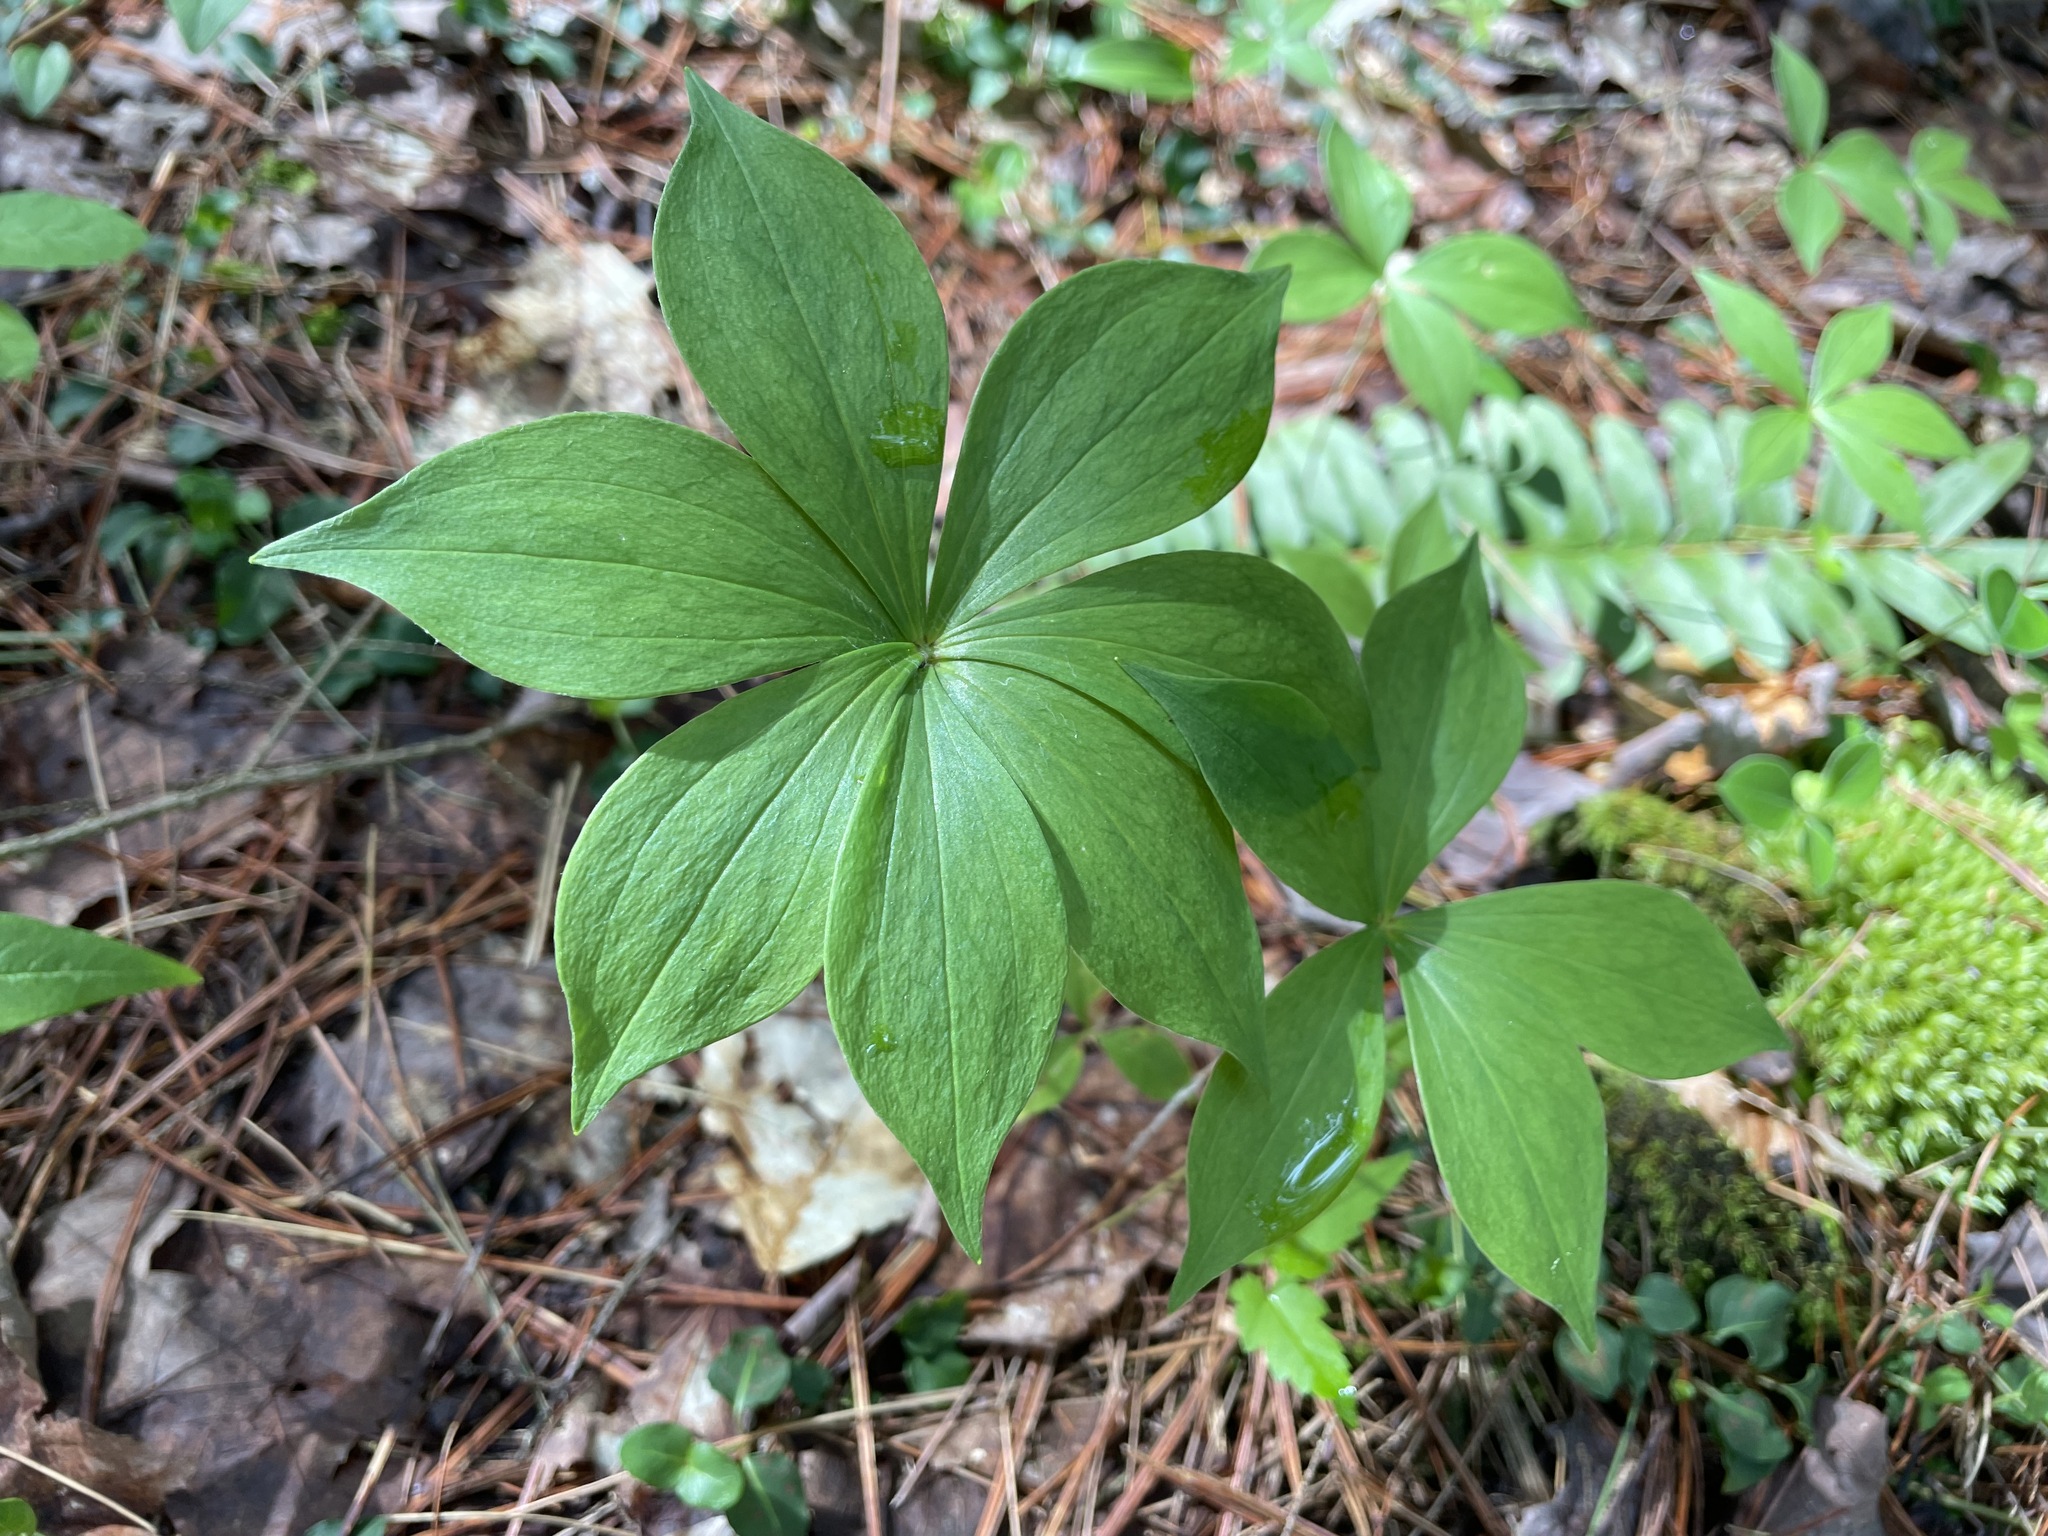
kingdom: Plantae
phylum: Tracheophyta
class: Liliopsida
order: Liliales
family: Liliaceae
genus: Medeola
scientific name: Medeola virginiana
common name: Indian cucumber-root
